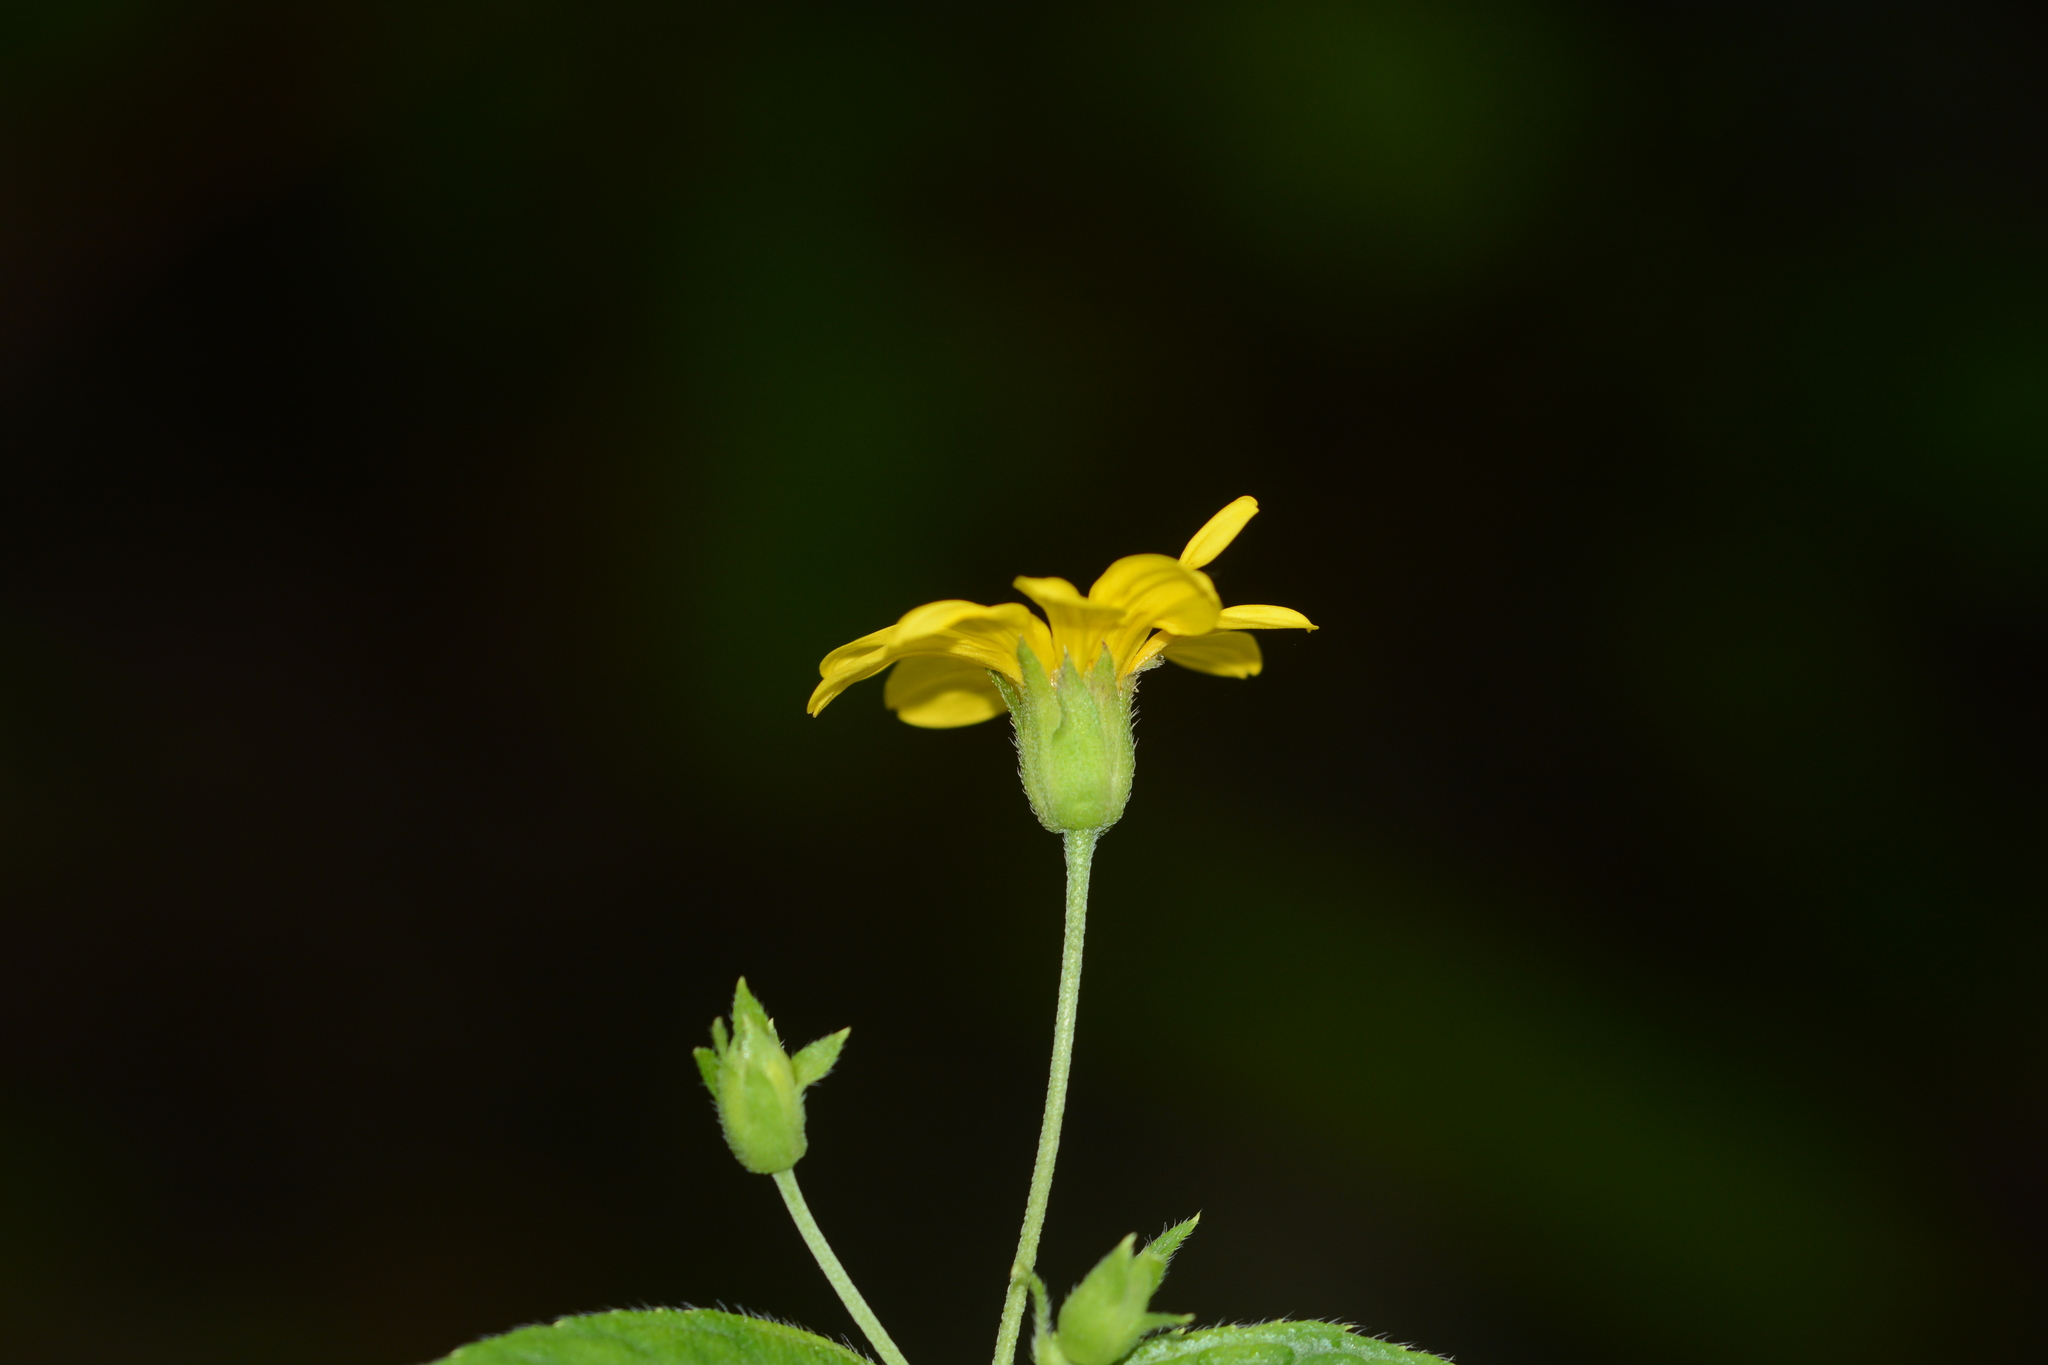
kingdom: Plantae
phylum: Tracheophyta
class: Magnoliopsida
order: Asterales
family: Asteraceae
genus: Wedelia
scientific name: Wedelia urticaefolia
